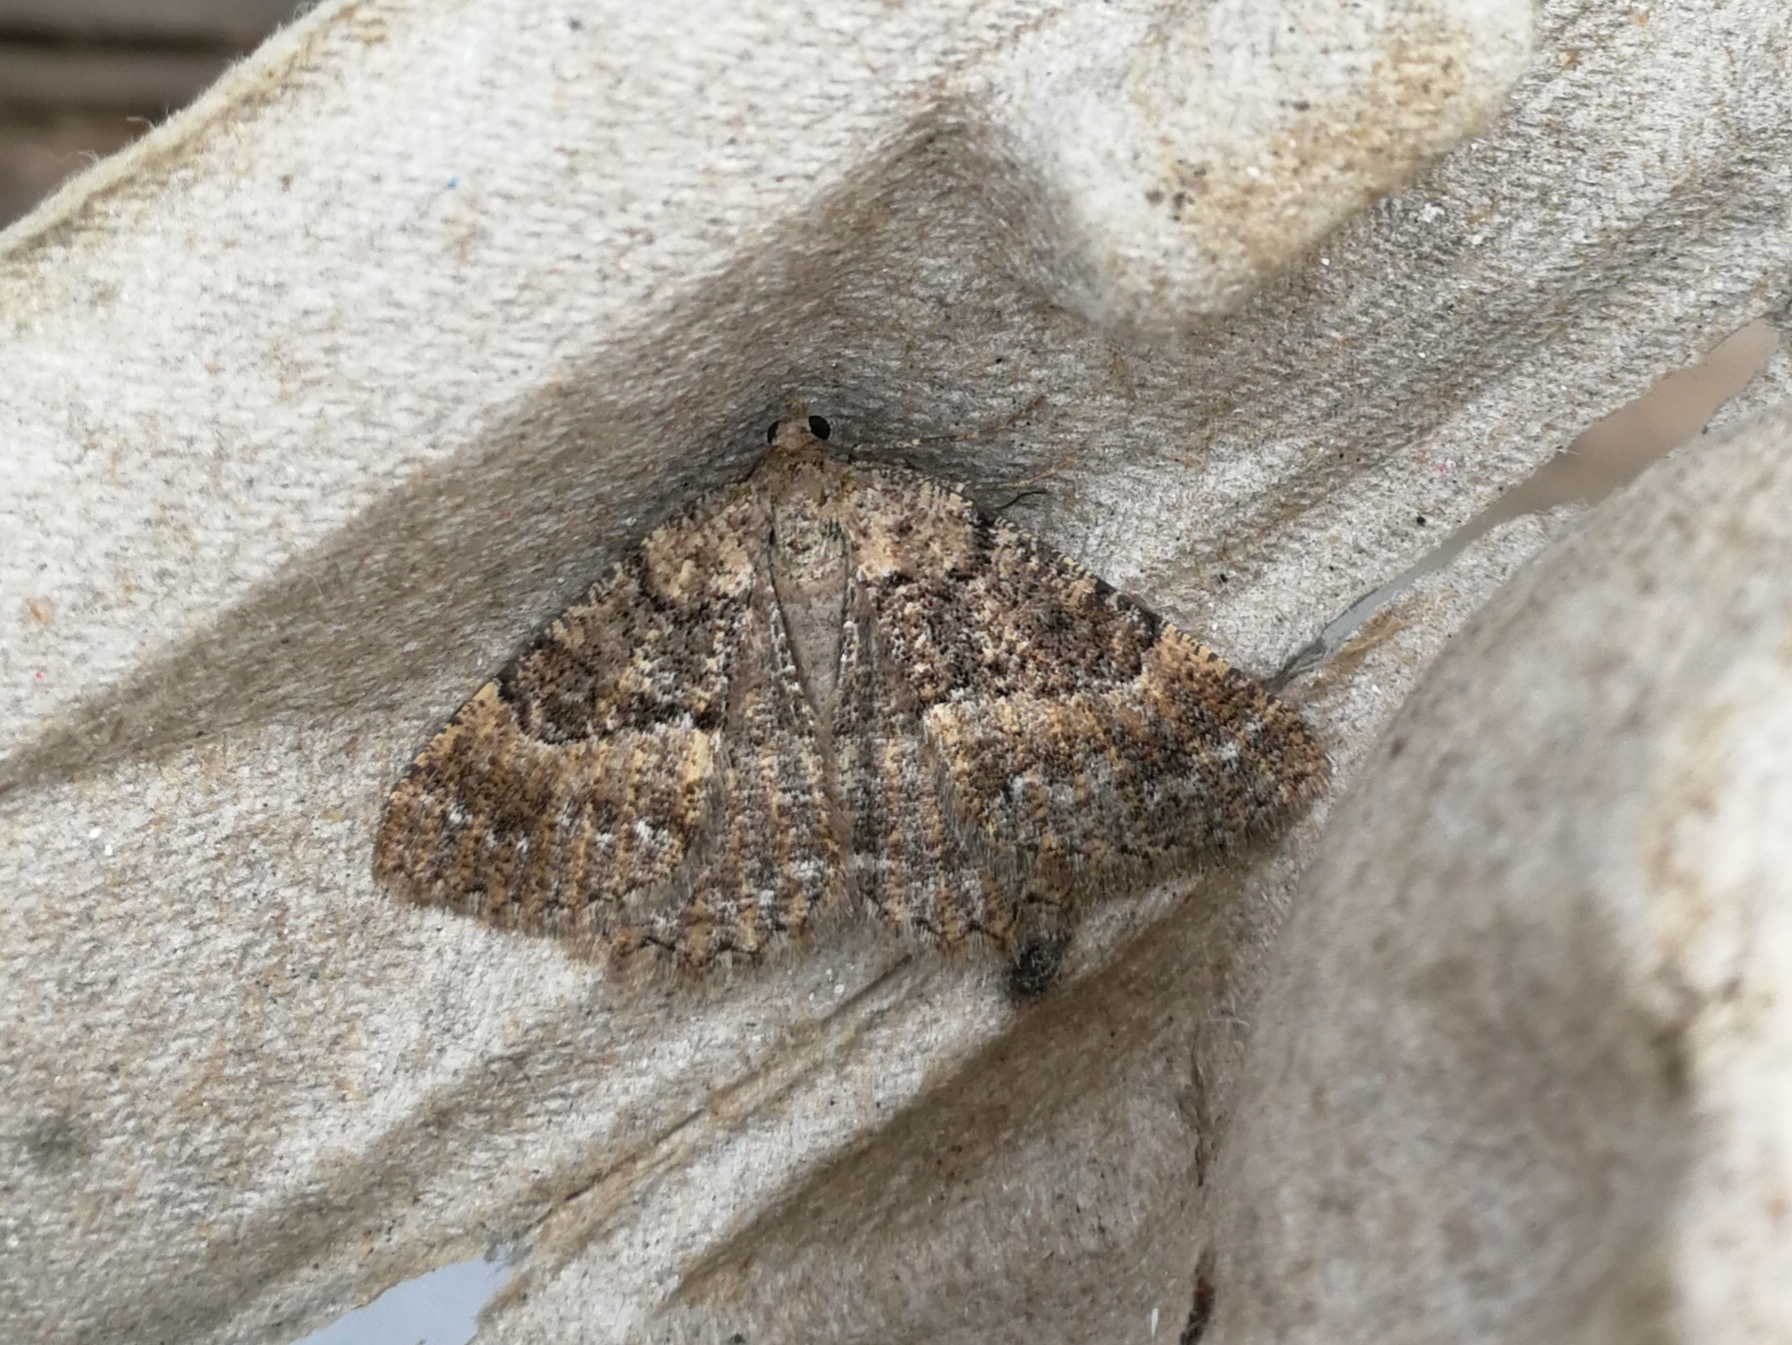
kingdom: Animalia
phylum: Arthropoda
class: Insecta
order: Lepidoptera
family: Geometridae
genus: Selidosema
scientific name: Selidosema taeniolaria
